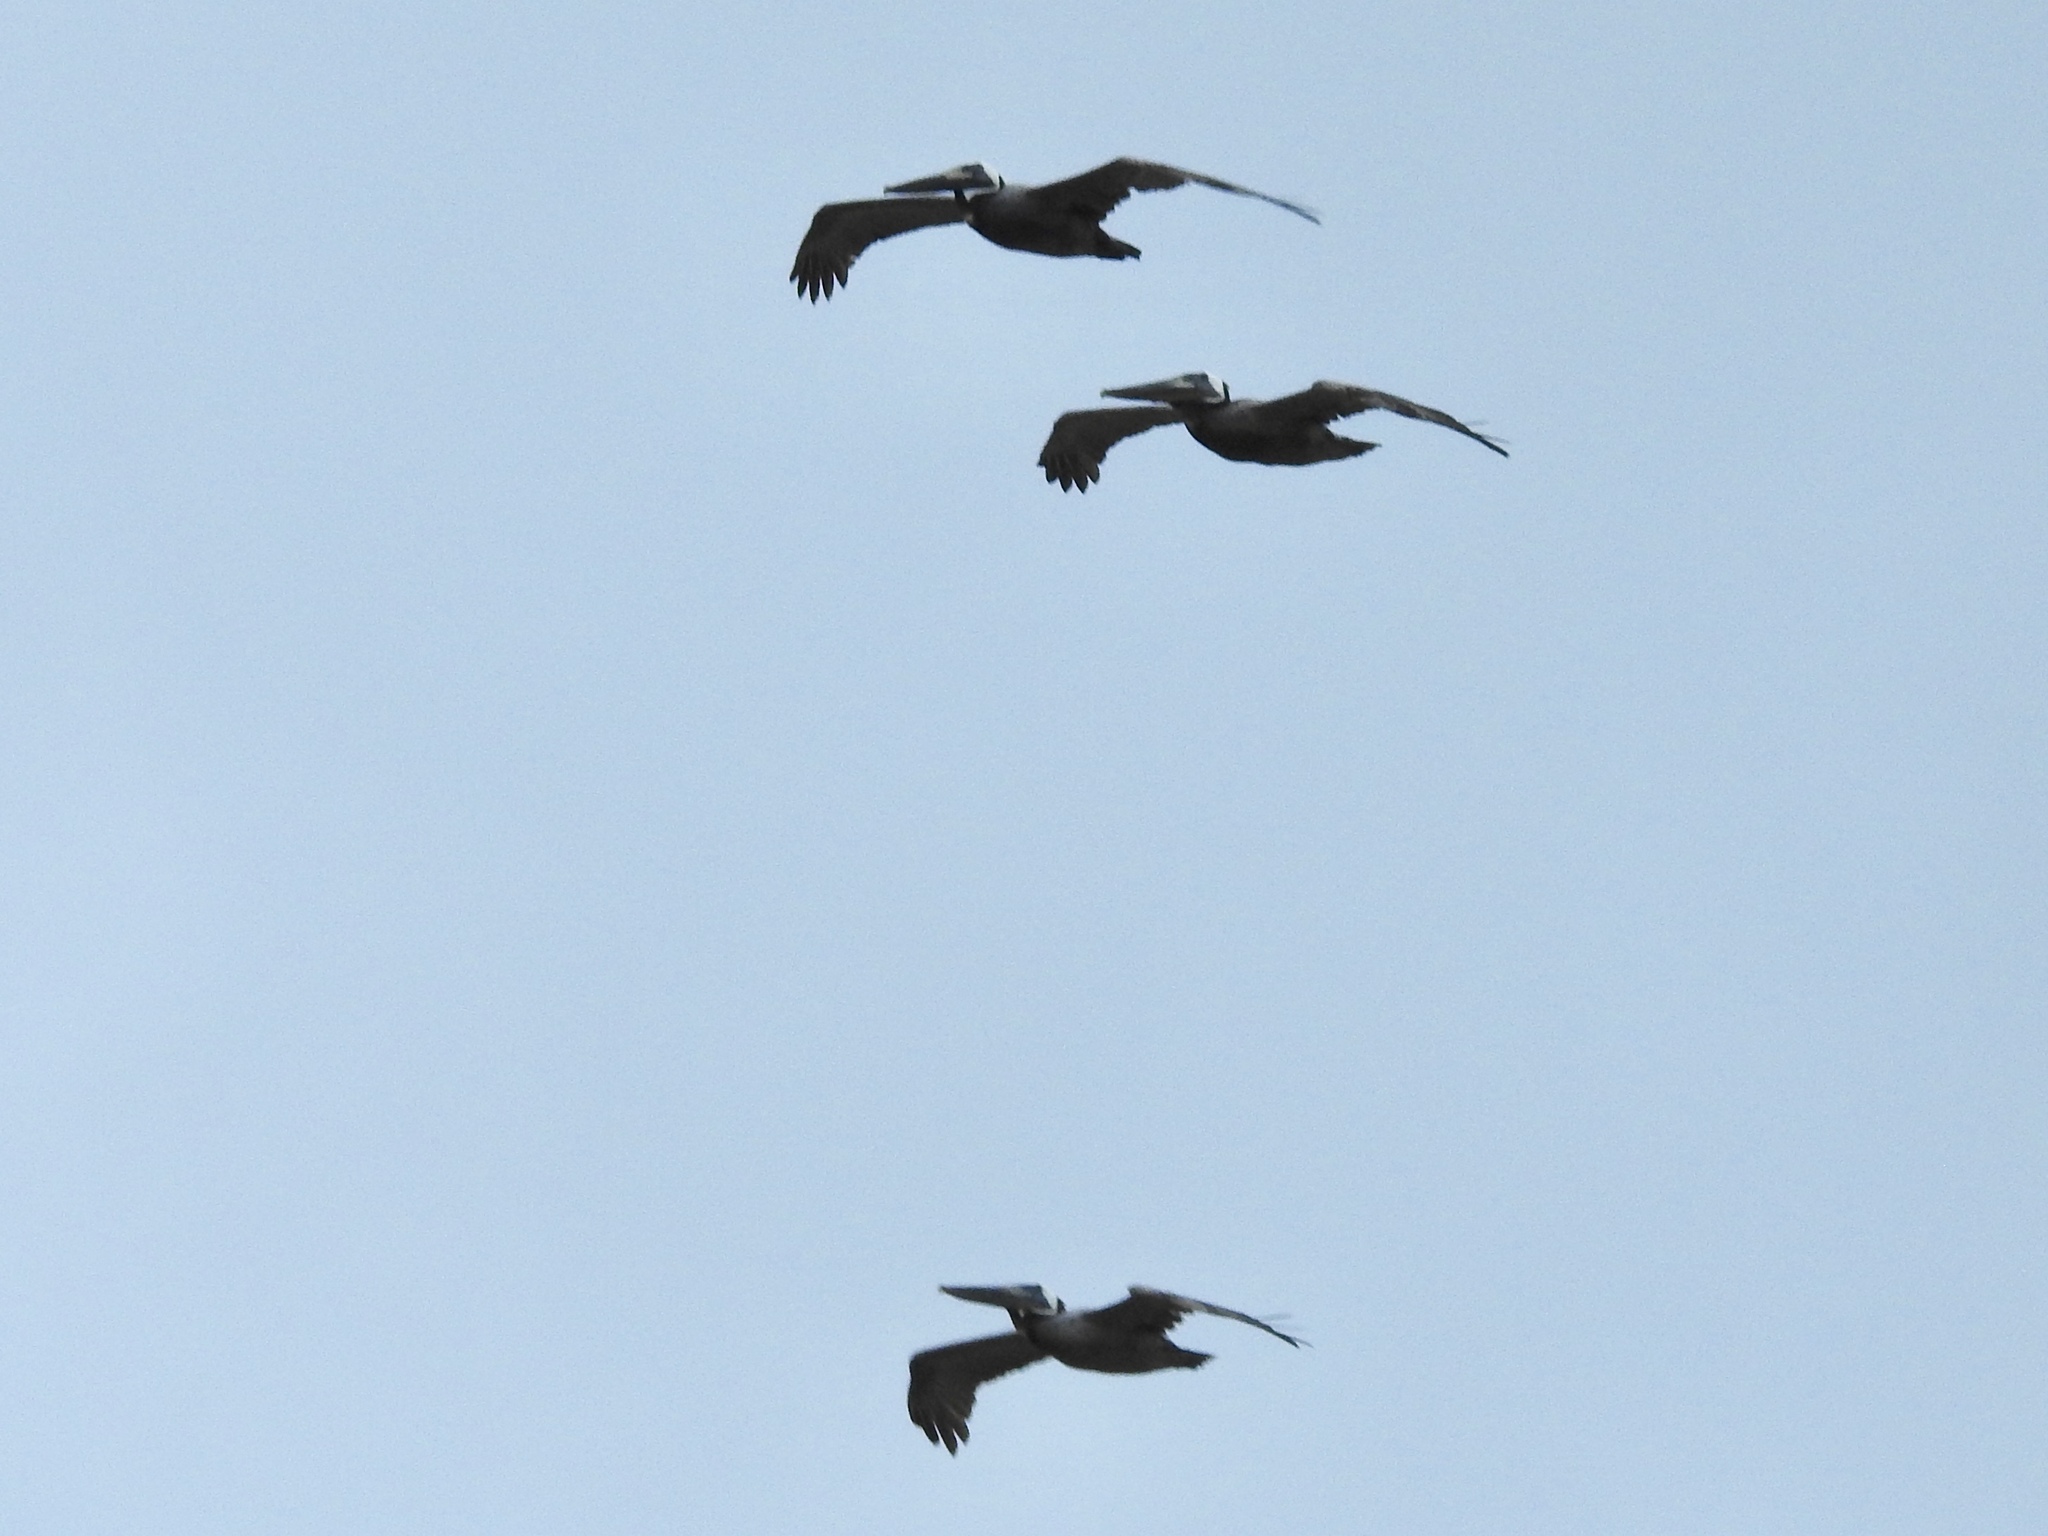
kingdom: Animalia
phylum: Chordata
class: Aves
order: Pelecaniformes
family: Pelecanidae
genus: Pelecanus
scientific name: Pelecanus occidentalis
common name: Brown pelican
